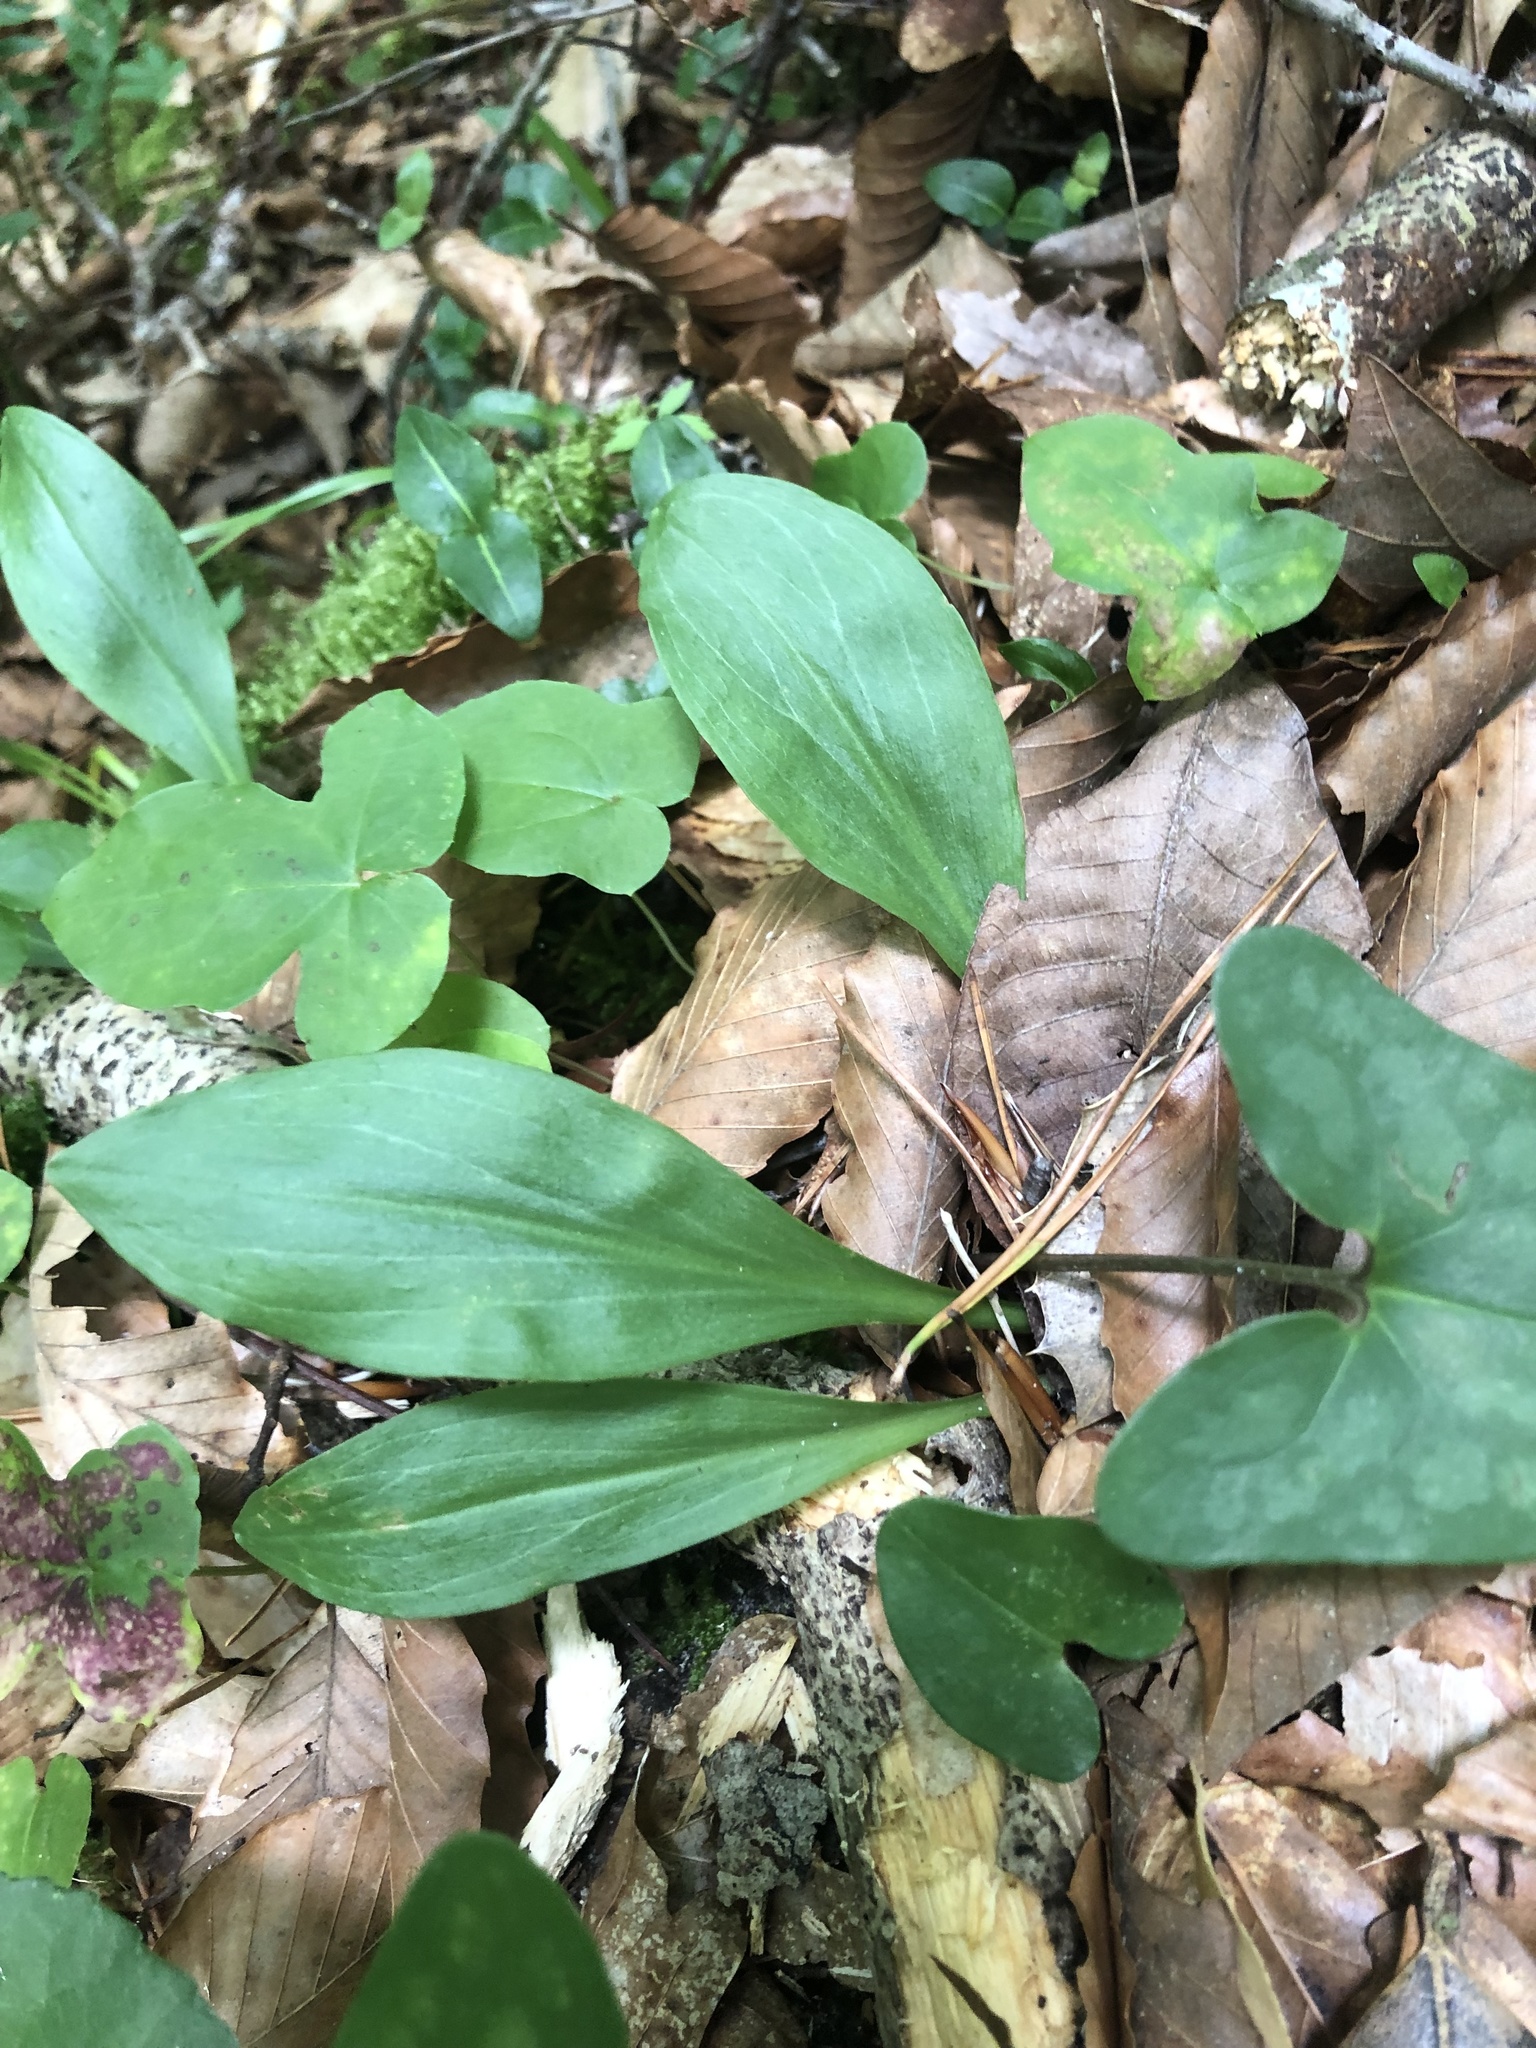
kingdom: Plantae
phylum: Tracheophyta
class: Liliopsida
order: Liliales
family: Melanthiaceae
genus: Chamaelirium
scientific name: Chamaelirium luteum
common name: Fairy-wand
